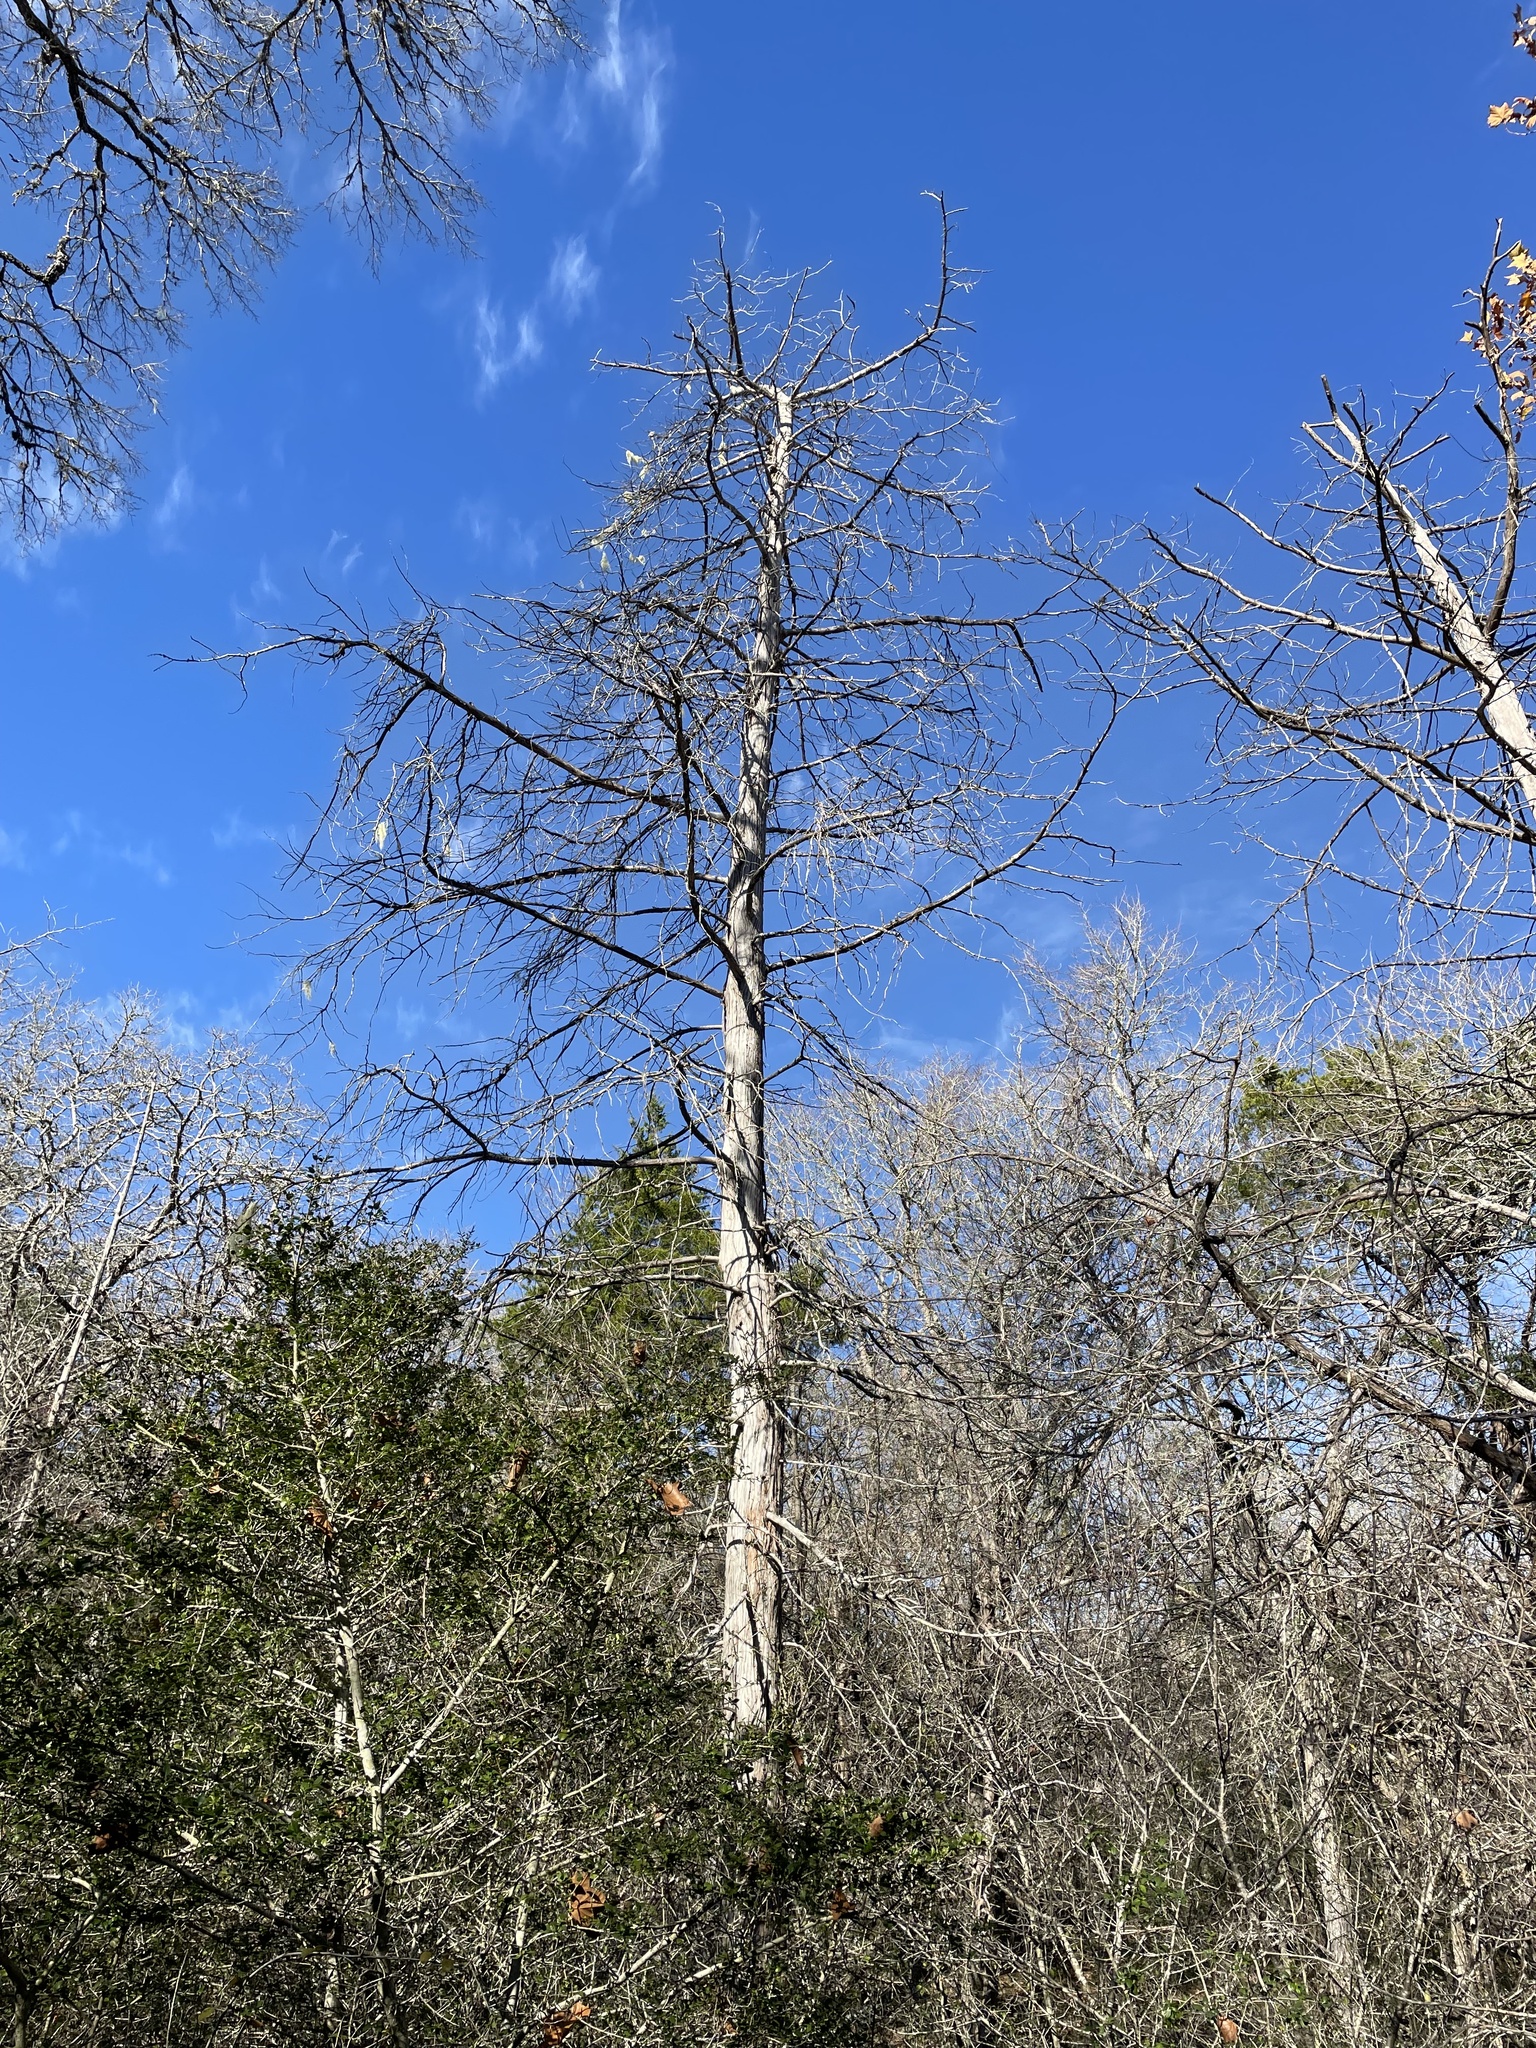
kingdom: Plantae
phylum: Tracheophyta
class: Pinopsida
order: Pinales
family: Cupressaceae
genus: Juniperus
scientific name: Juniperus virginiana
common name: Red juniper
